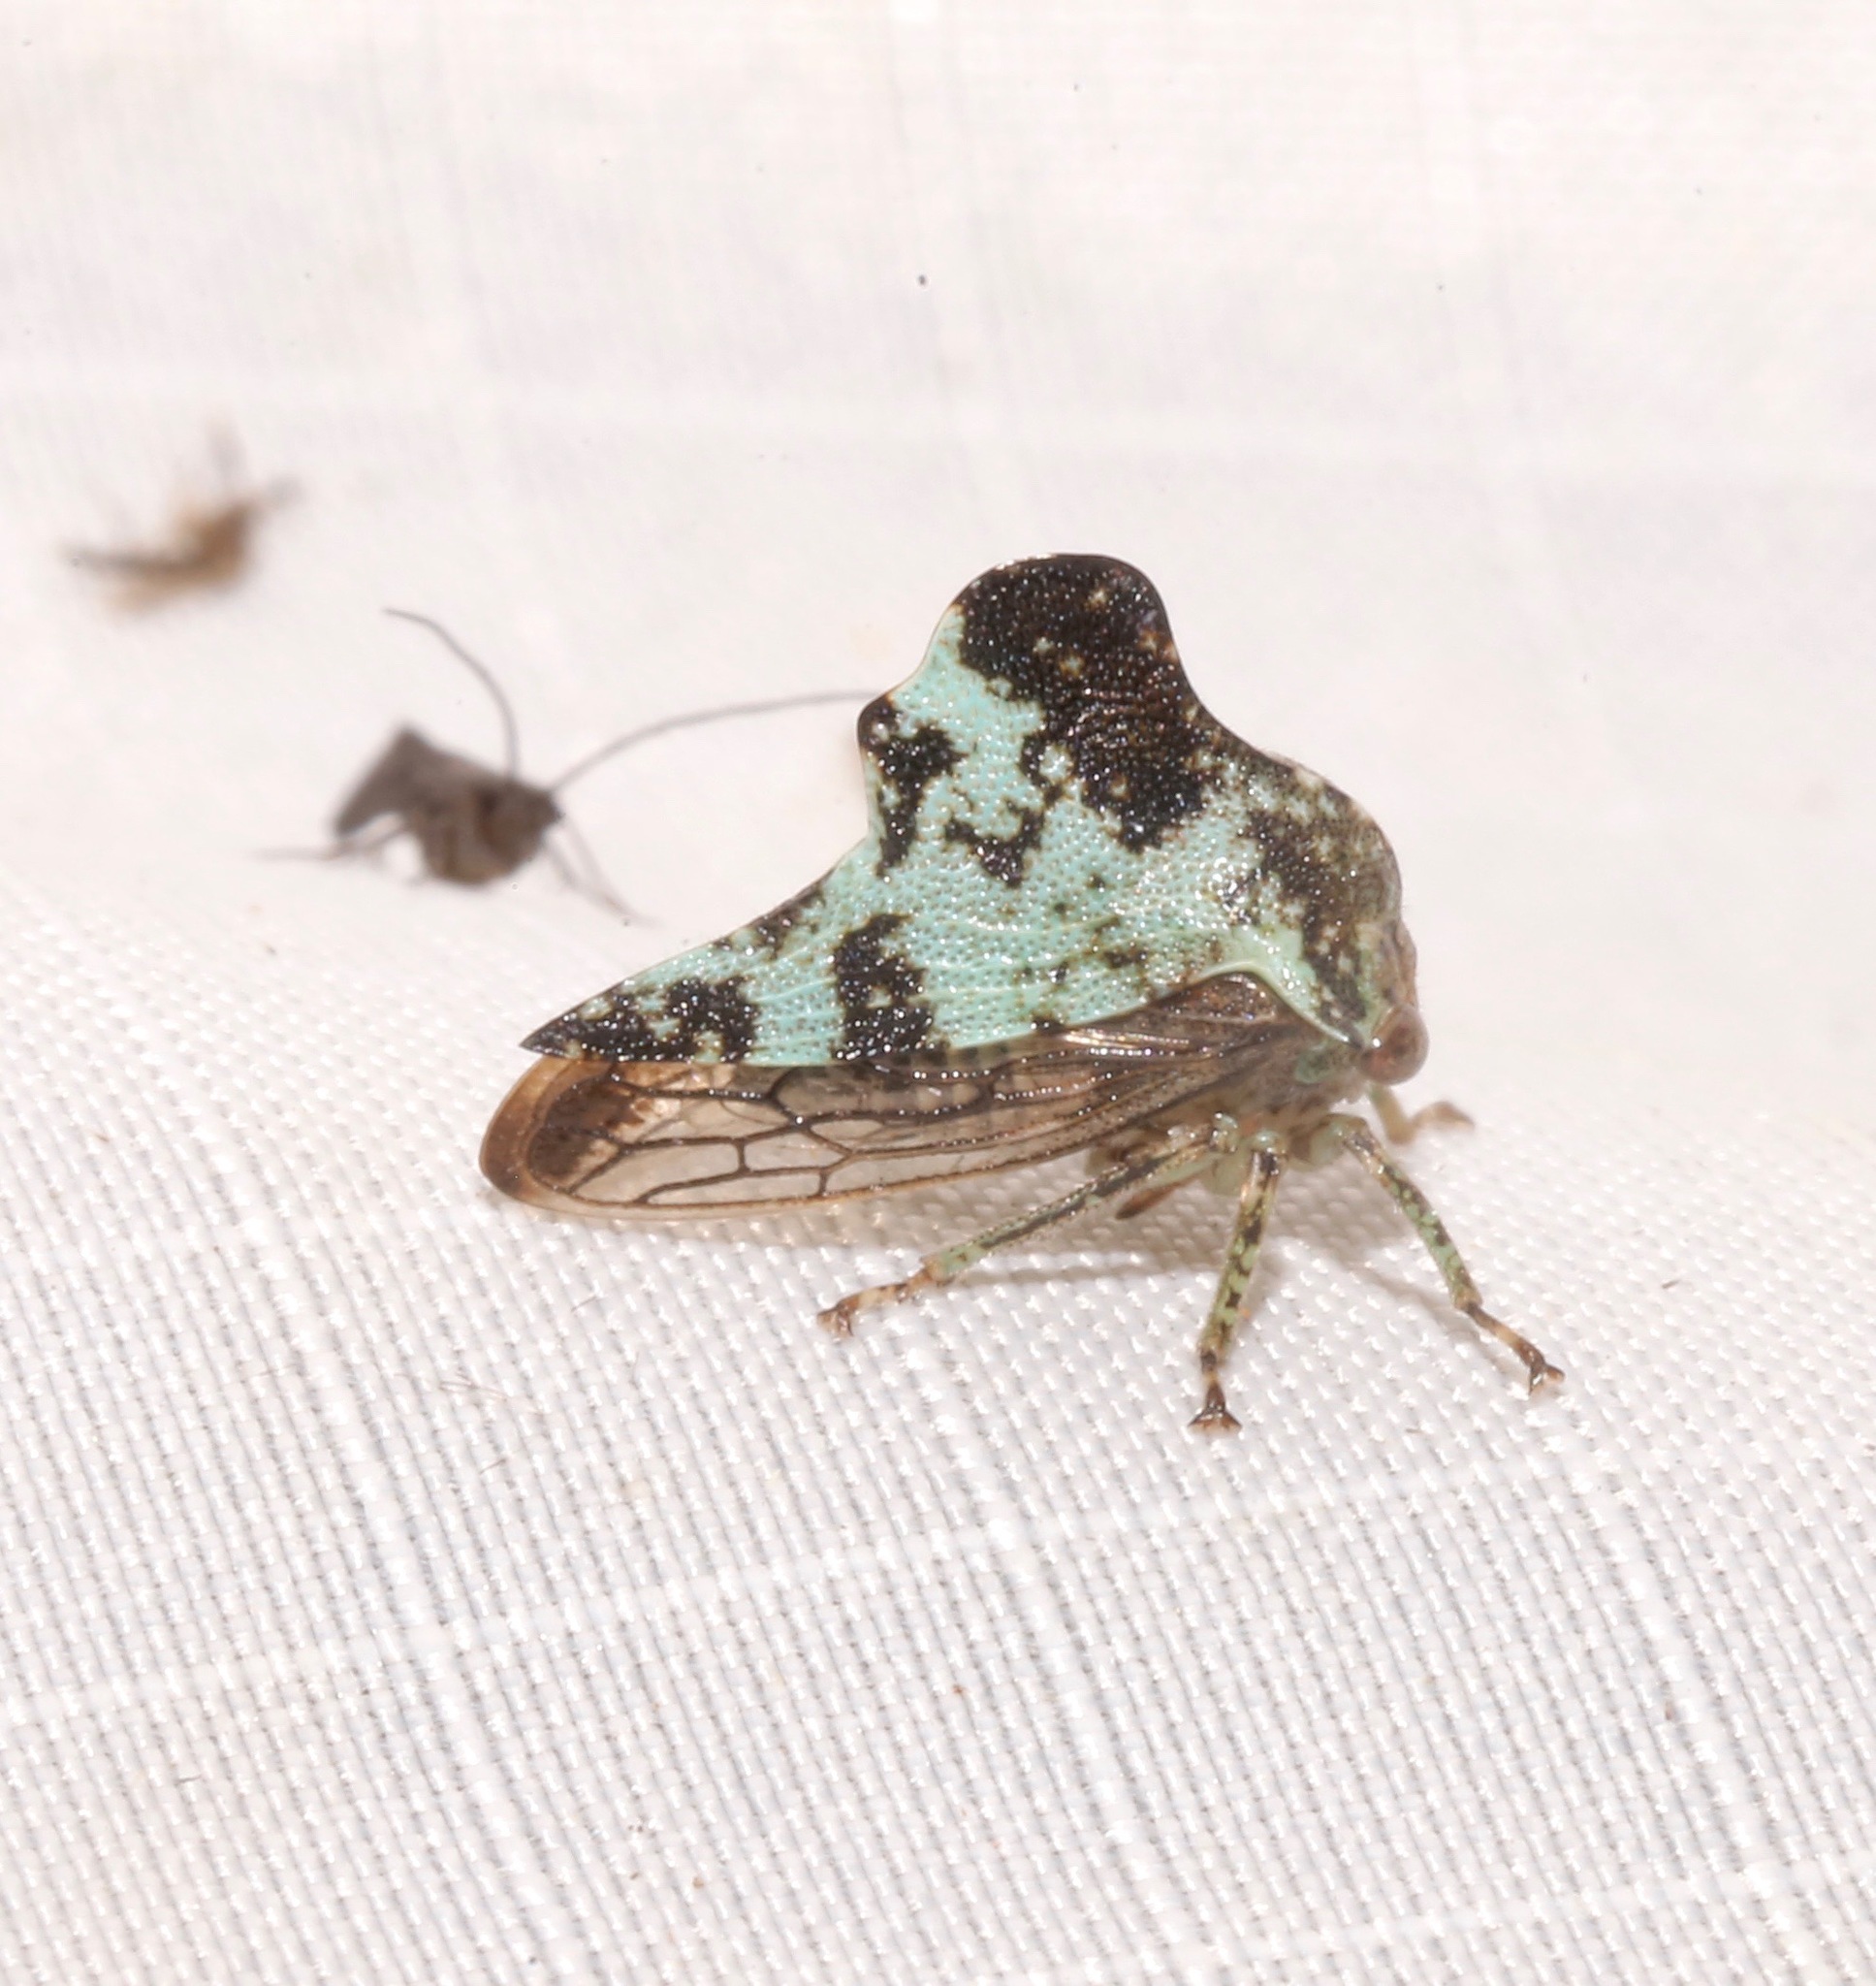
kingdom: Animalia
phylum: Arthropoda
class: Insecta
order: Hemiptera
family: Membracidae
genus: Telamona
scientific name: Telamona concava
